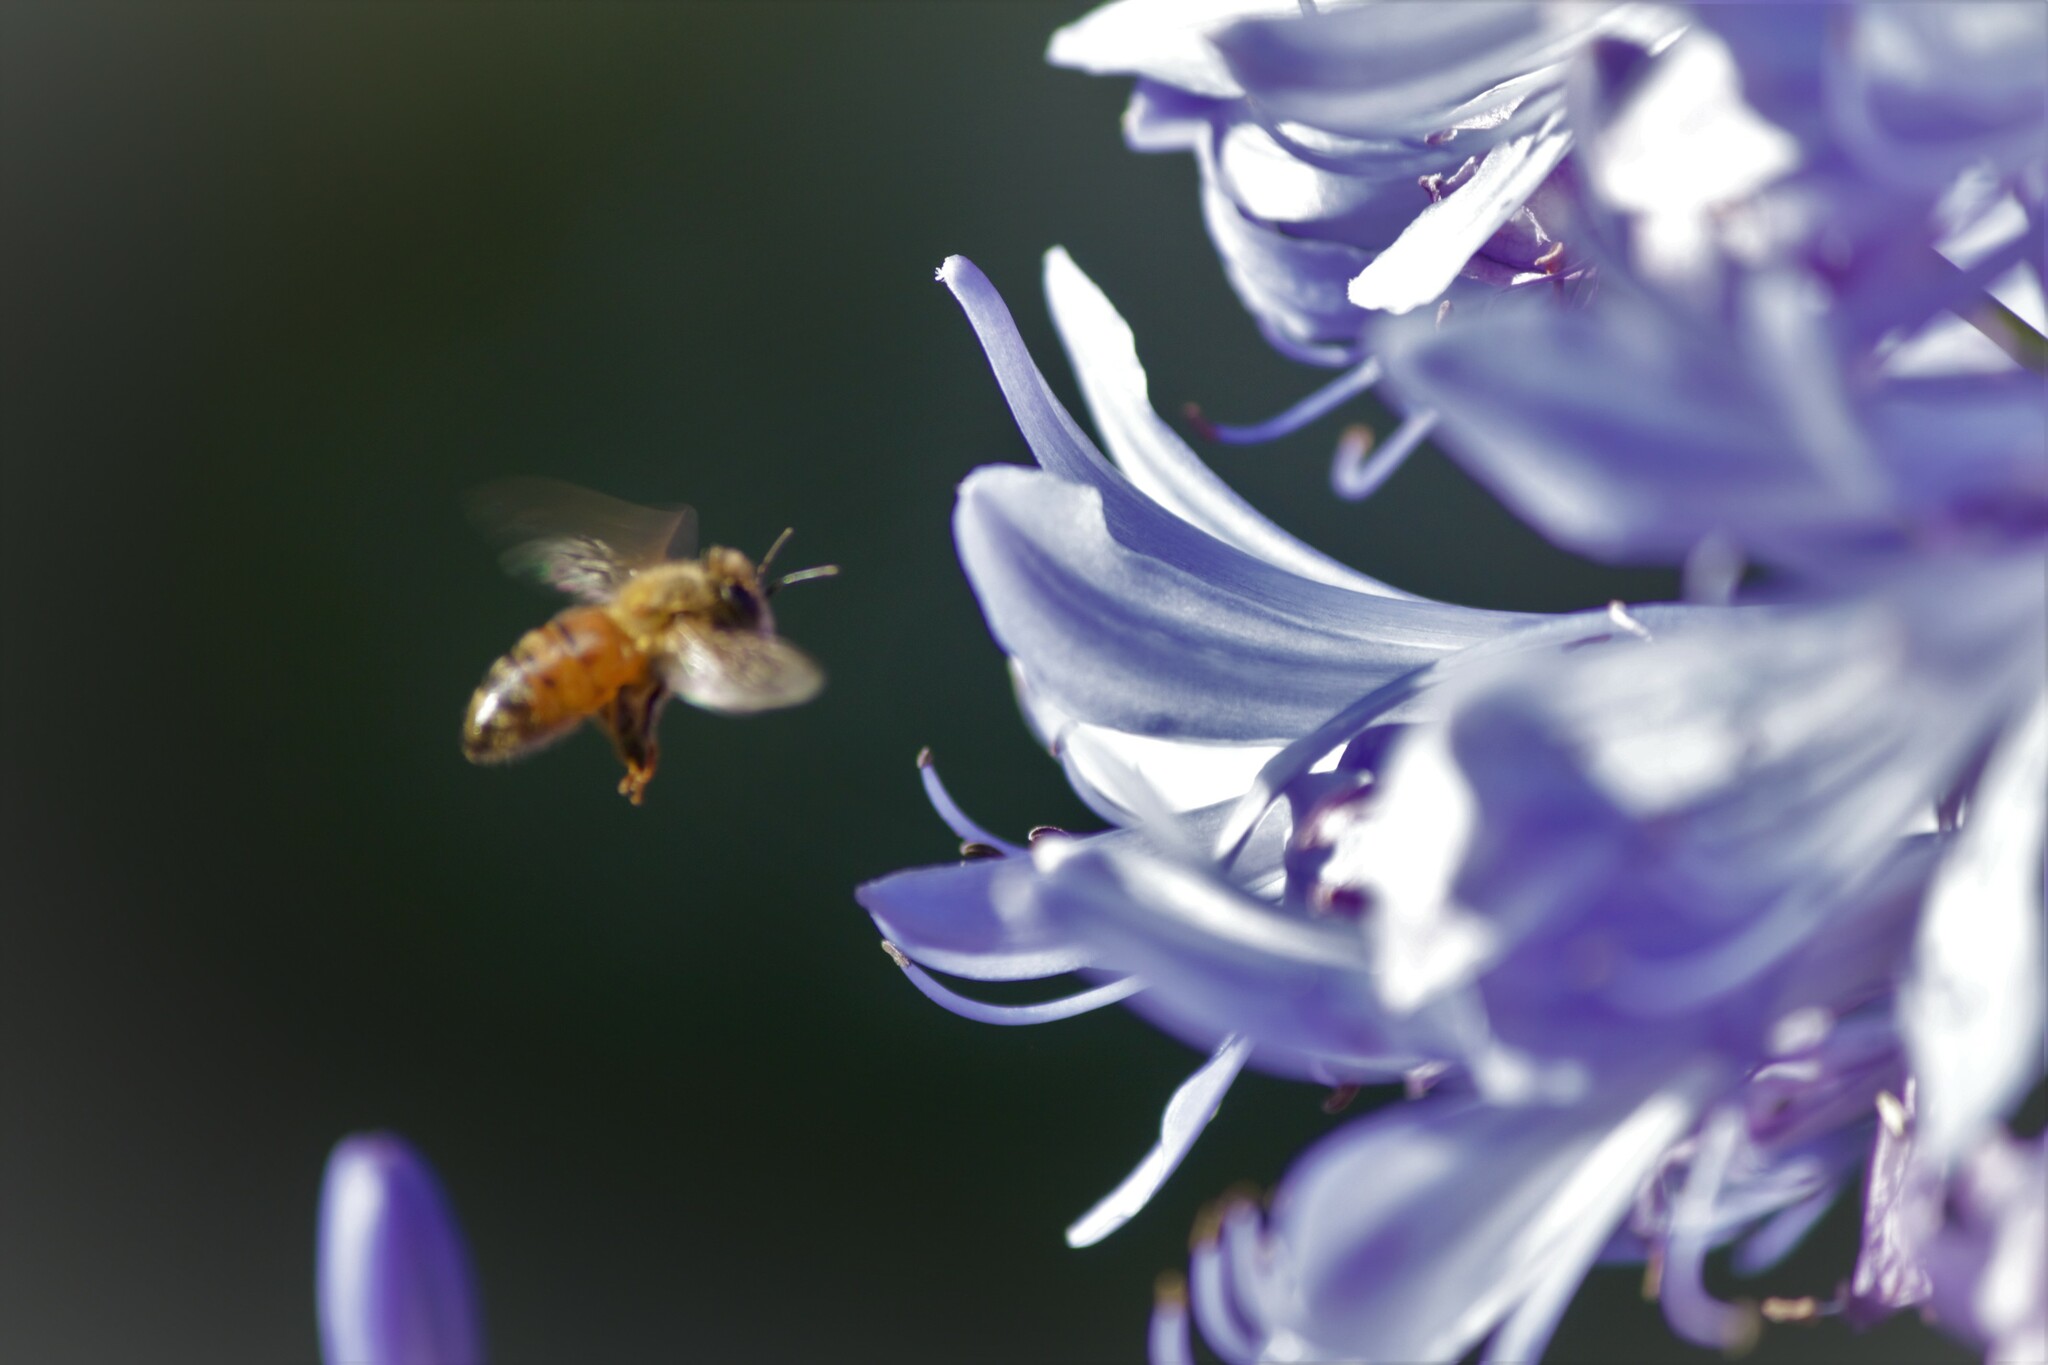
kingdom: Animalia
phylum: Arthropoda
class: Insecta
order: Hymenoptera
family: Apidae
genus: Apis
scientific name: Apis mellifera
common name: Honey bee
